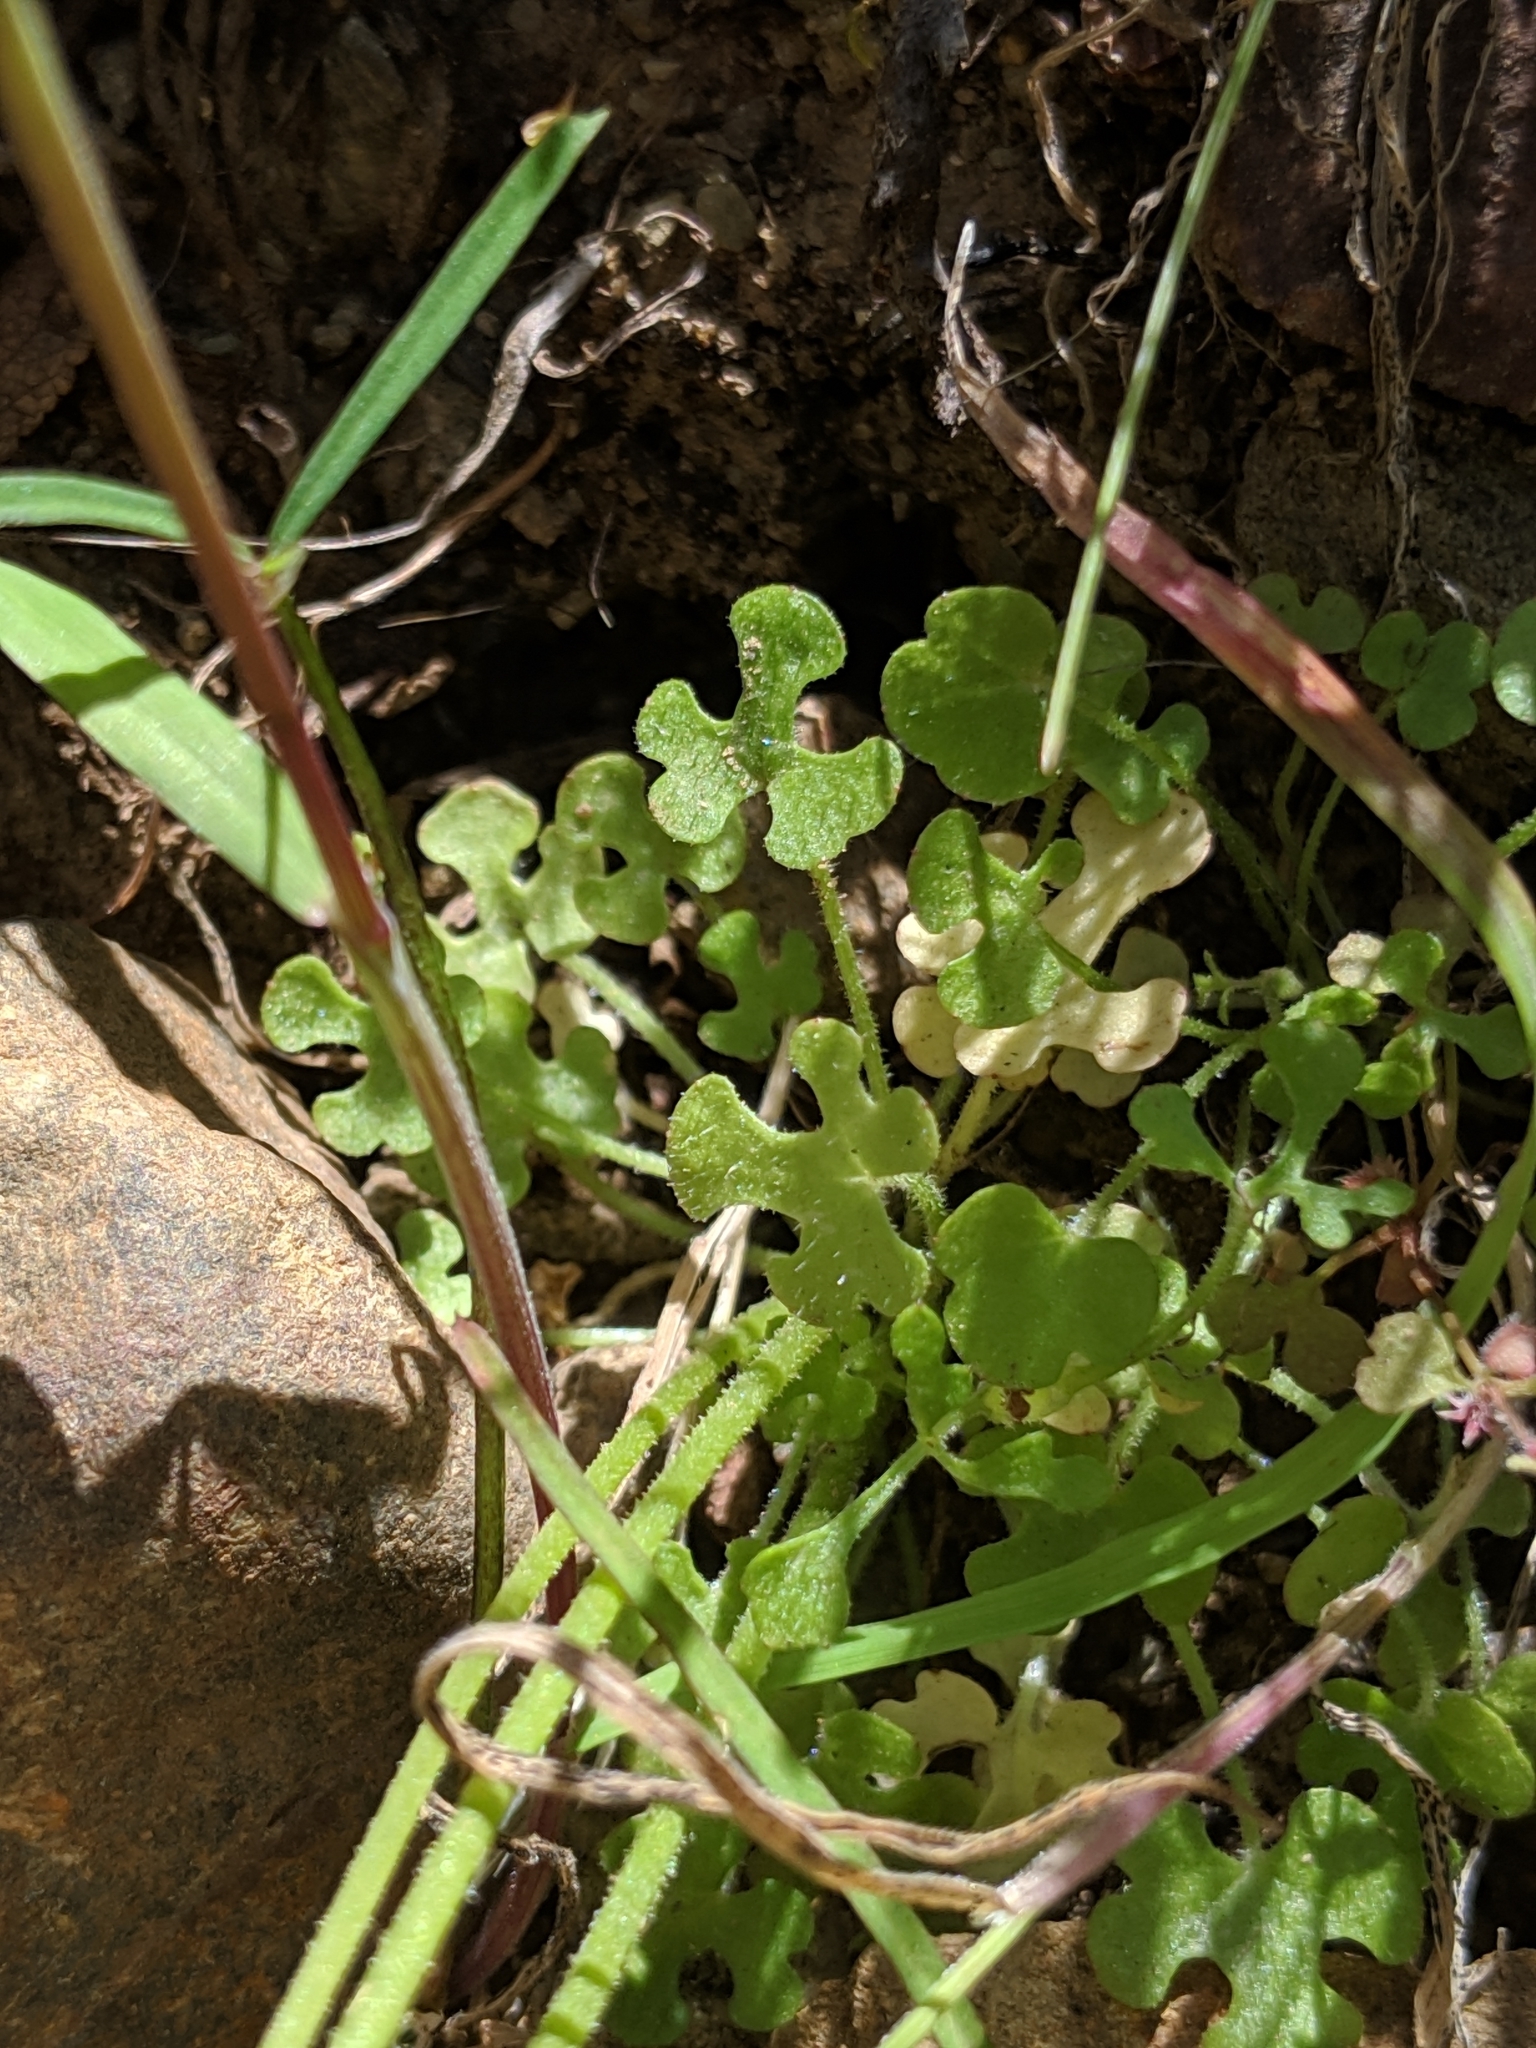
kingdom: Plantae
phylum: Tracheophyta
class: Magnoliopsida
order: Saxifragales
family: Saxifragaceae
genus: Lithophragma
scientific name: Lithophragma cymbalaria
